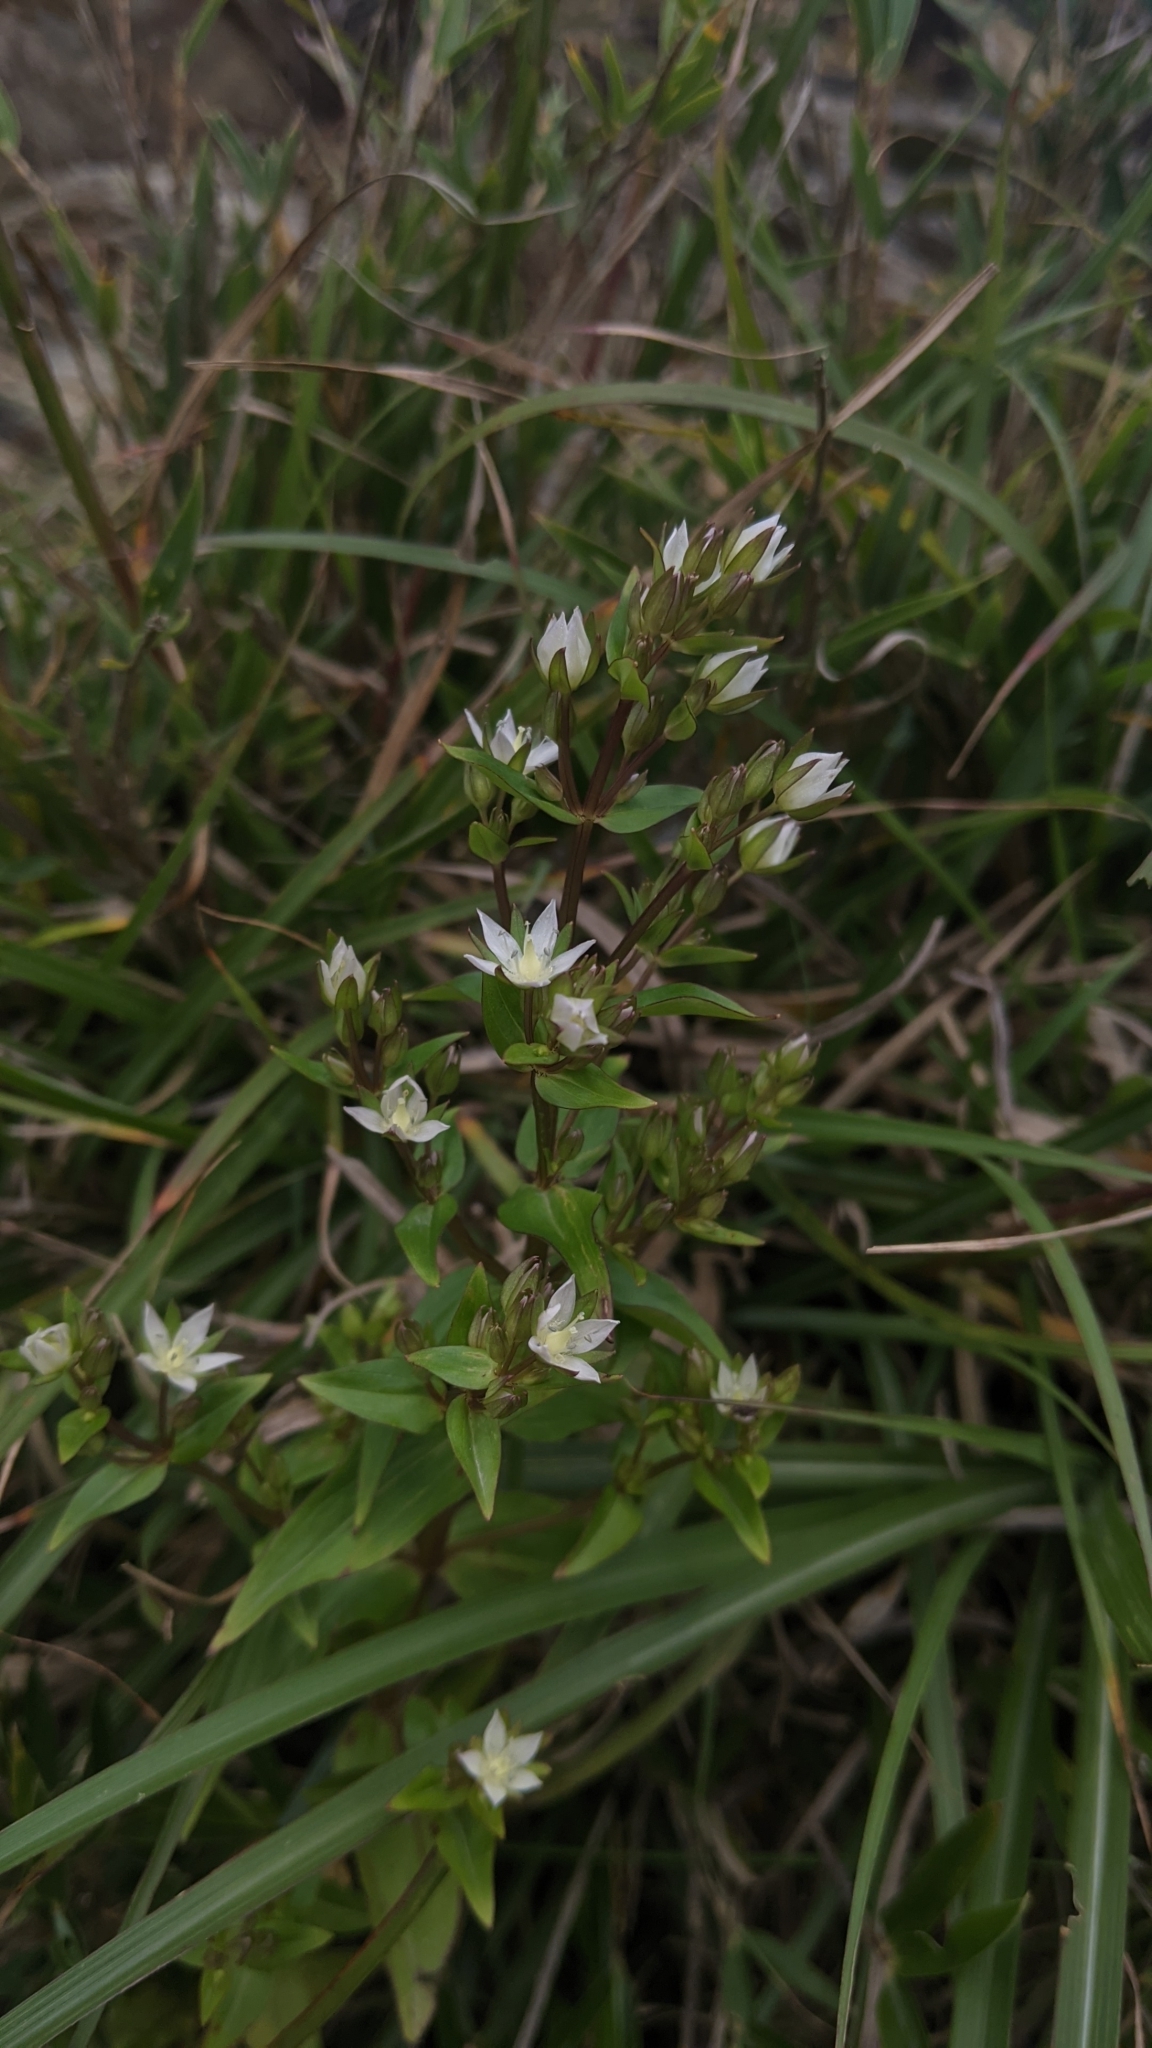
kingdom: Plantae
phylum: Tracheophyta
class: Magnoliopsida
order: Gentianales
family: Gentianaceae
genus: Swertia
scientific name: Swertia macrosperma
